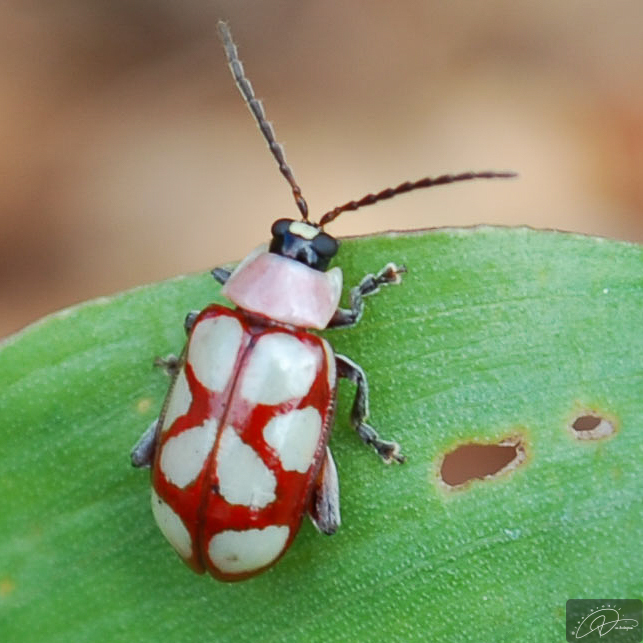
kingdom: Animalia
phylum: Arthropoda
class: Insecta
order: Coleoptera
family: Chrysomelidae
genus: Omophoita
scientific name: Omophoita
